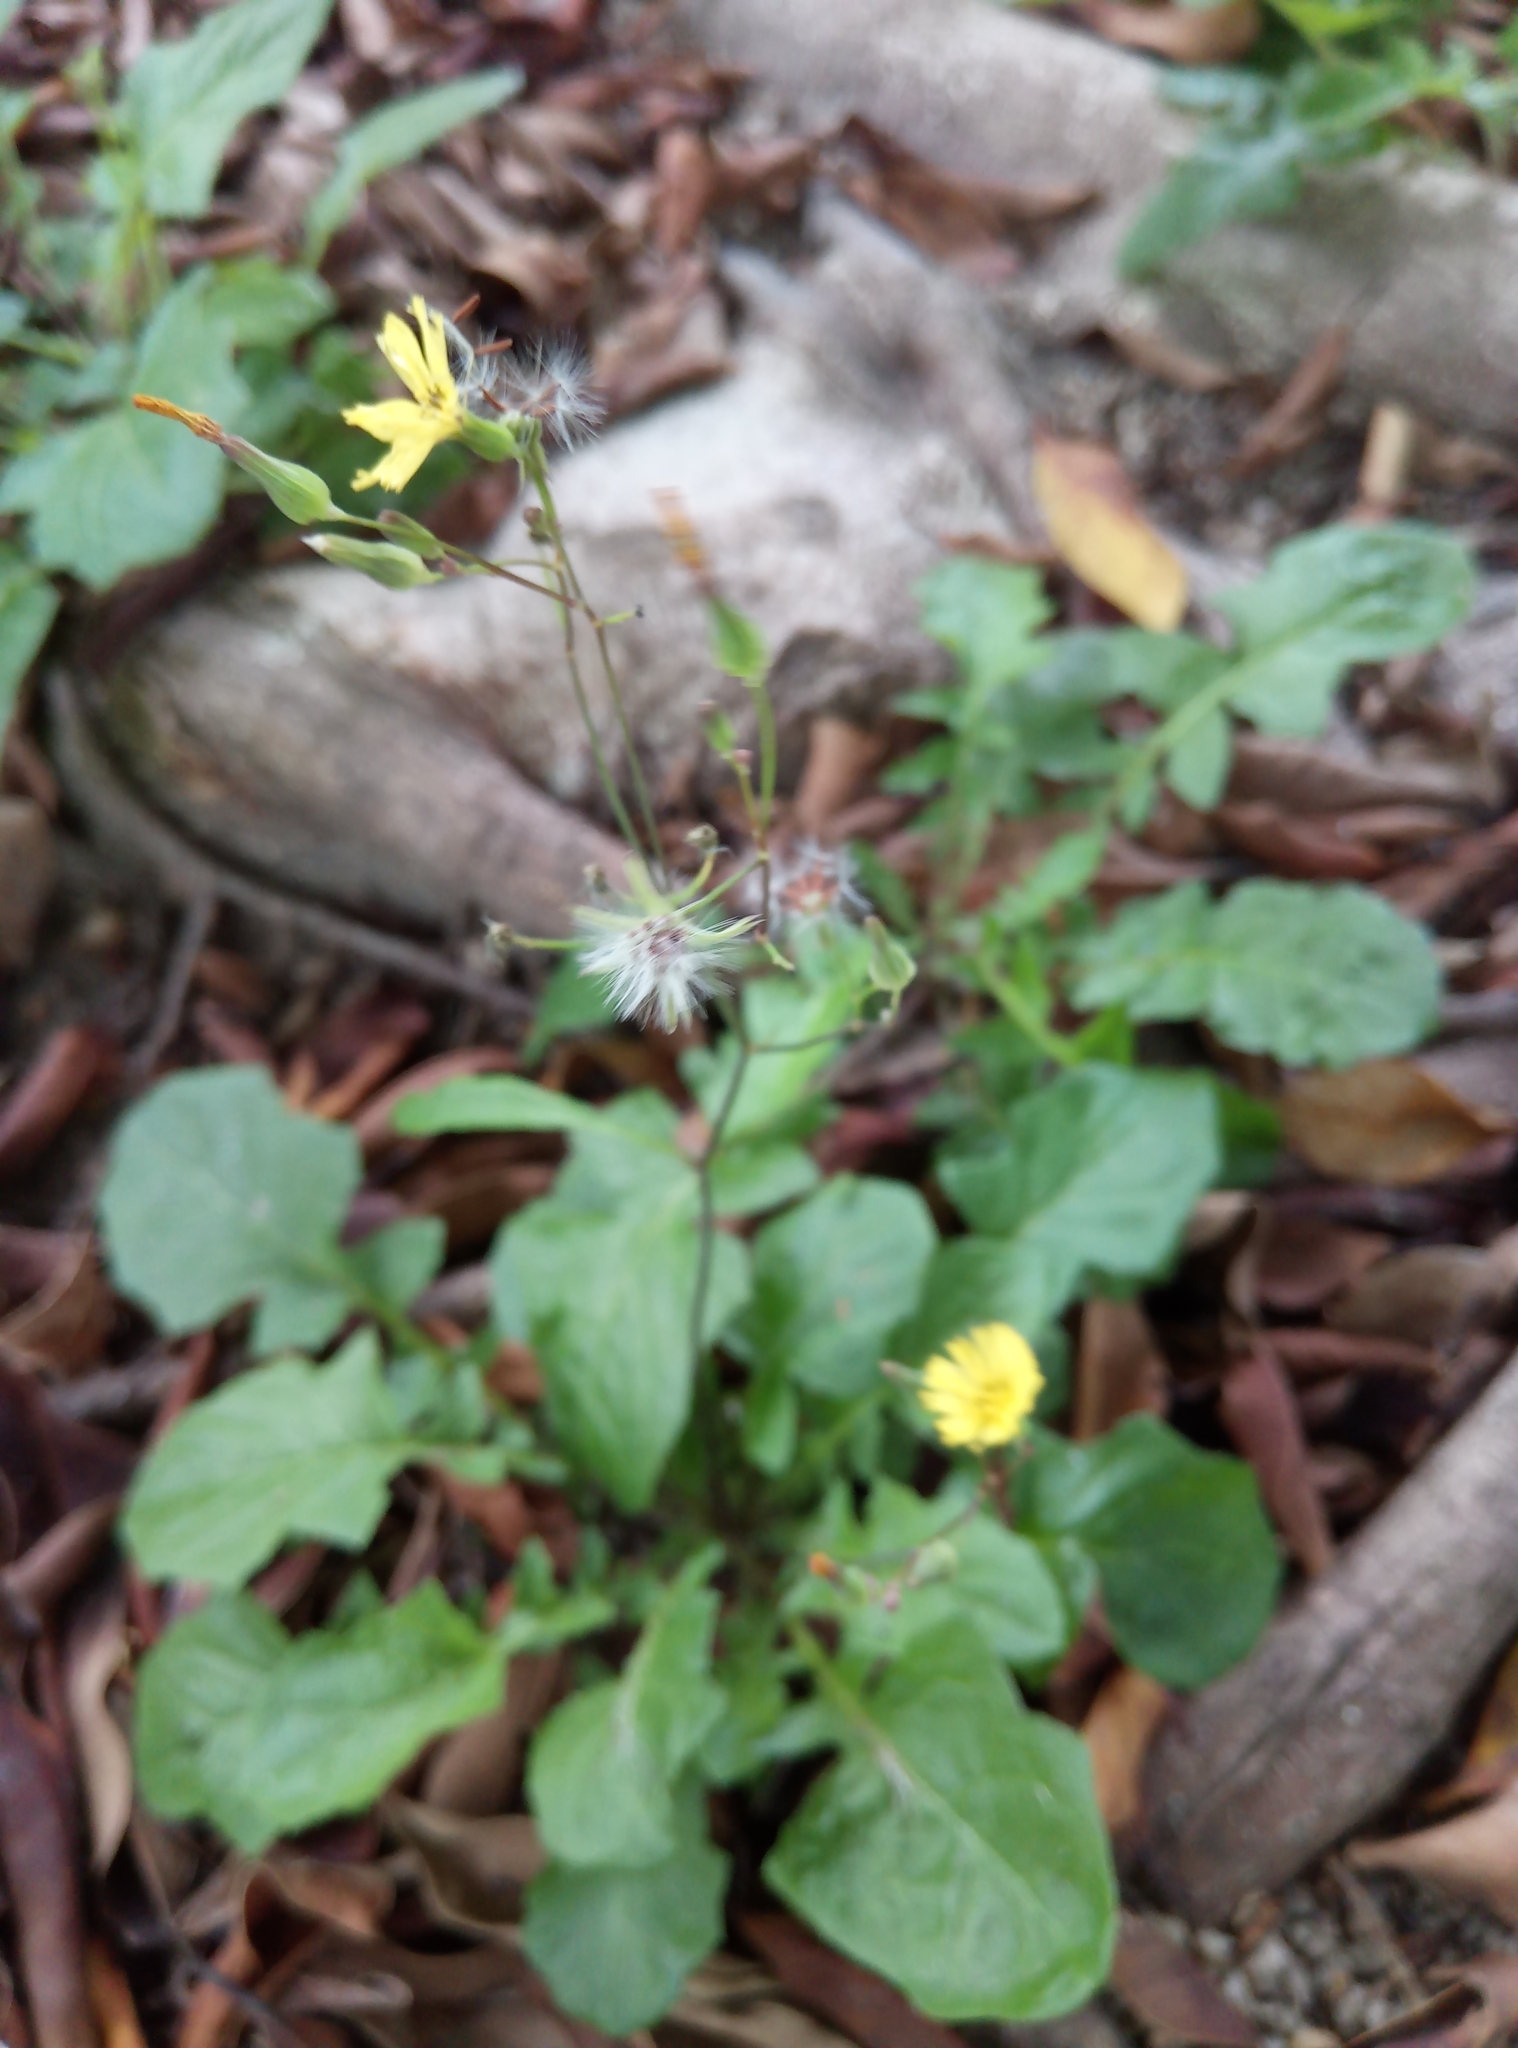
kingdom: Plantae
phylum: Tracheophyta
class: Magnoliopsida
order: Asterales
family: Asteraceae
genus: Youngia
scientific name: Youngia japonica
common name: Oriental false hawksbeard
